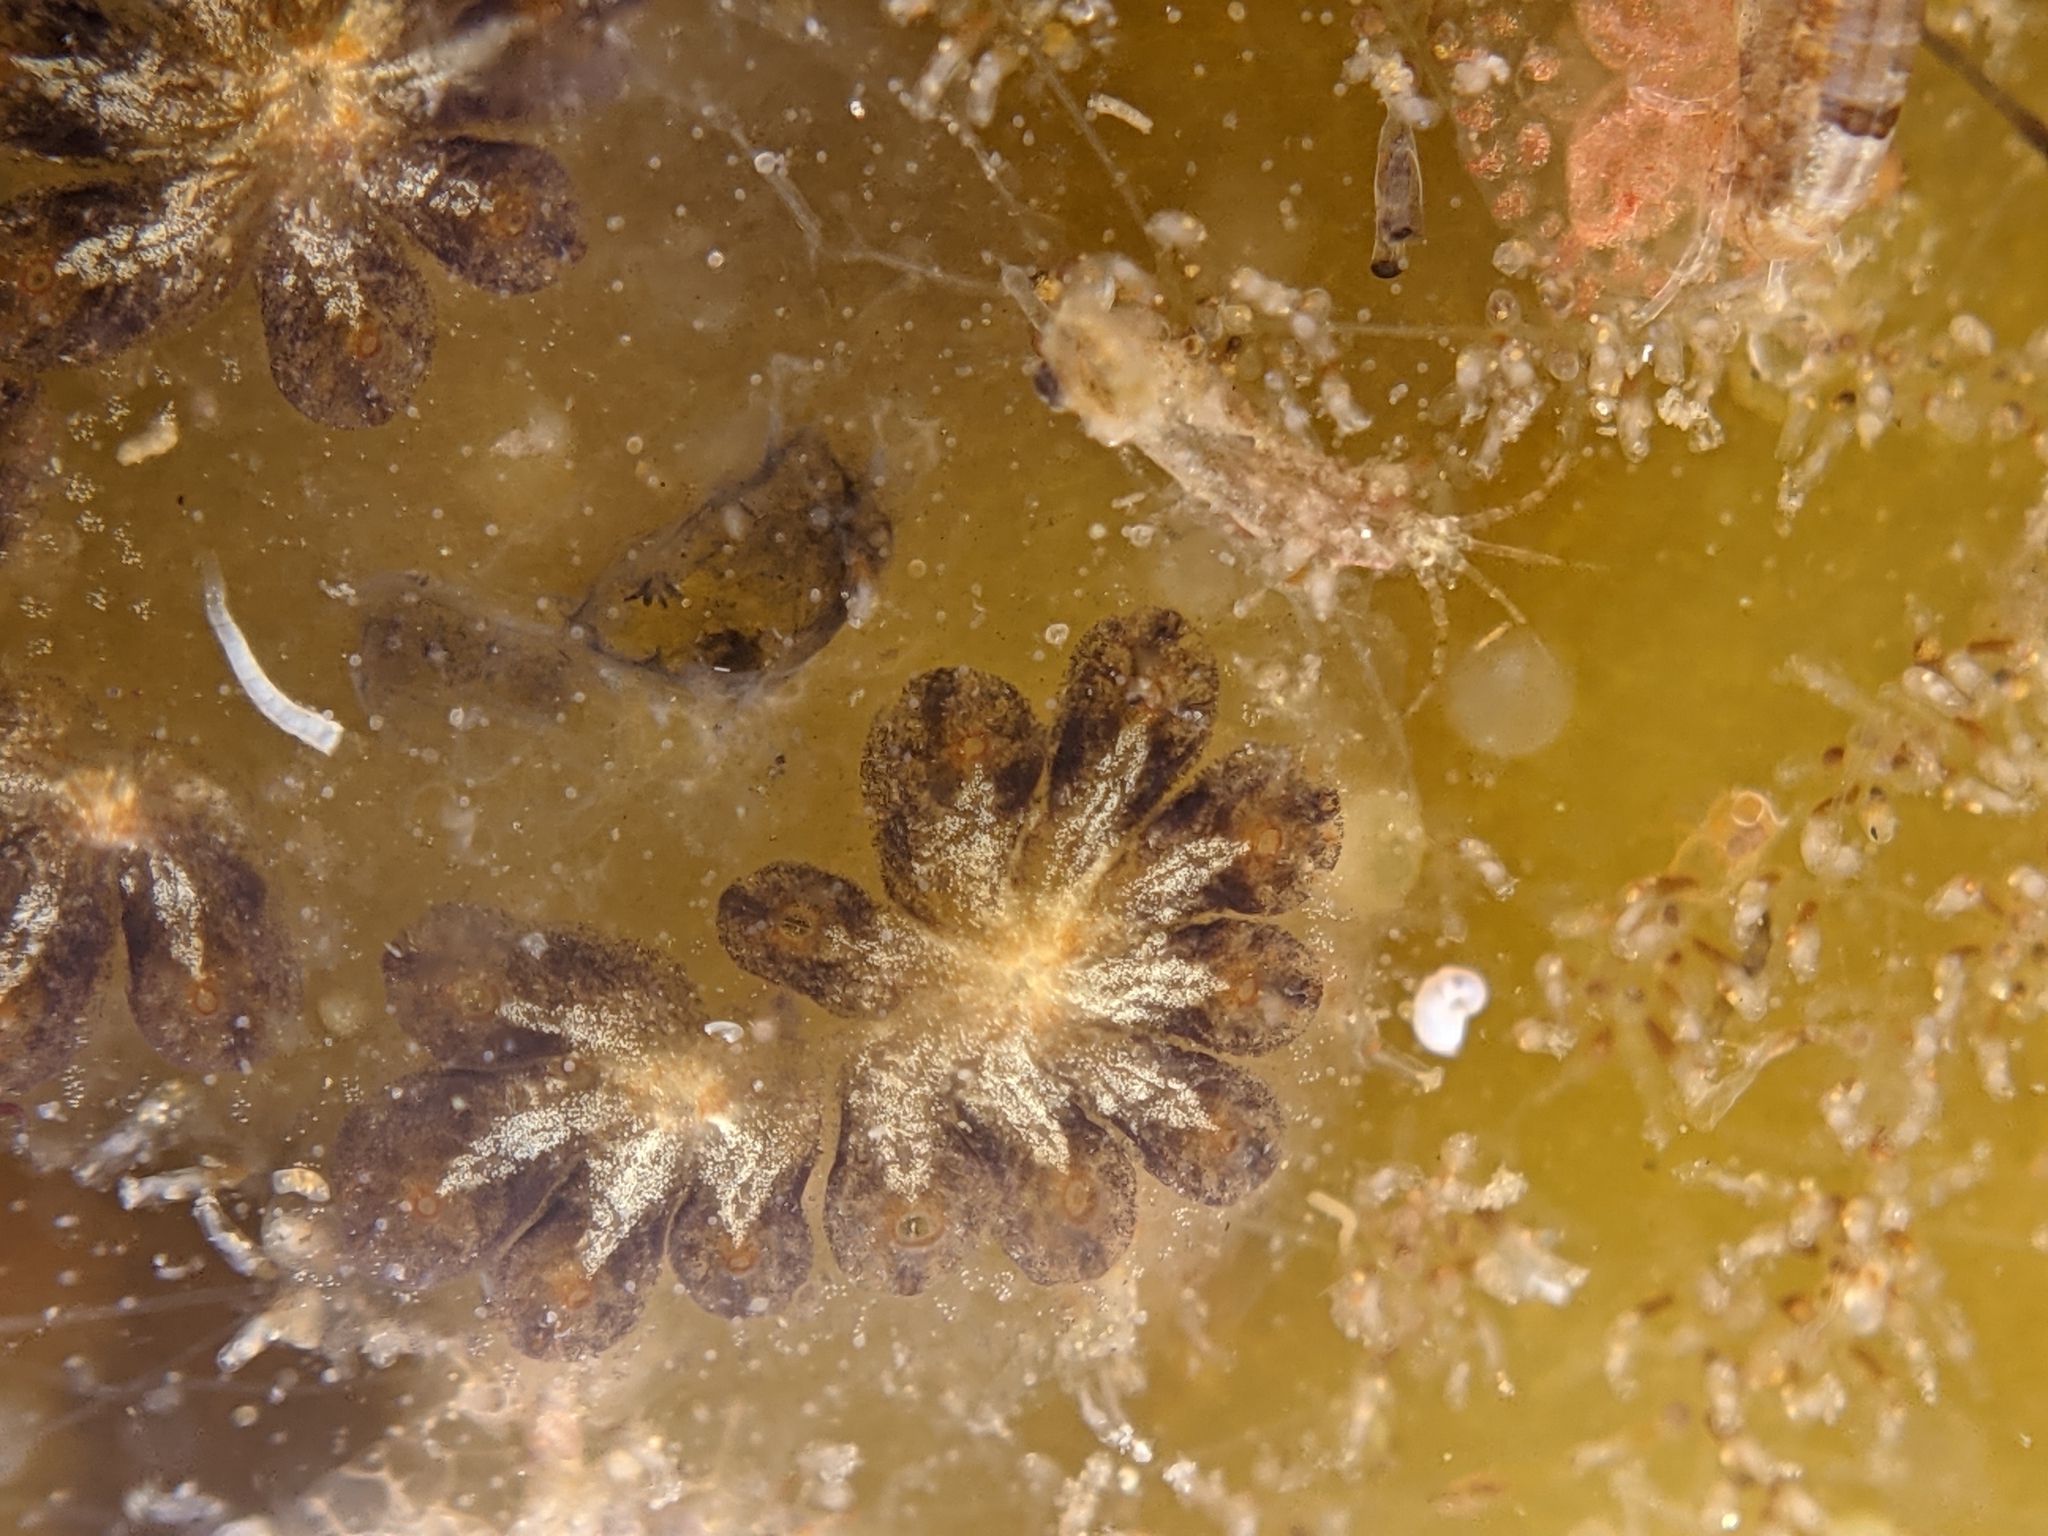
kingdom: Animalia
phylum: Chordata
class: Ascidiacea
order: Stolidobranchia
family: Styelidae
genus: Botryllus
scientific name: Botryllus schlosseri
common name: Golden star tunicate
